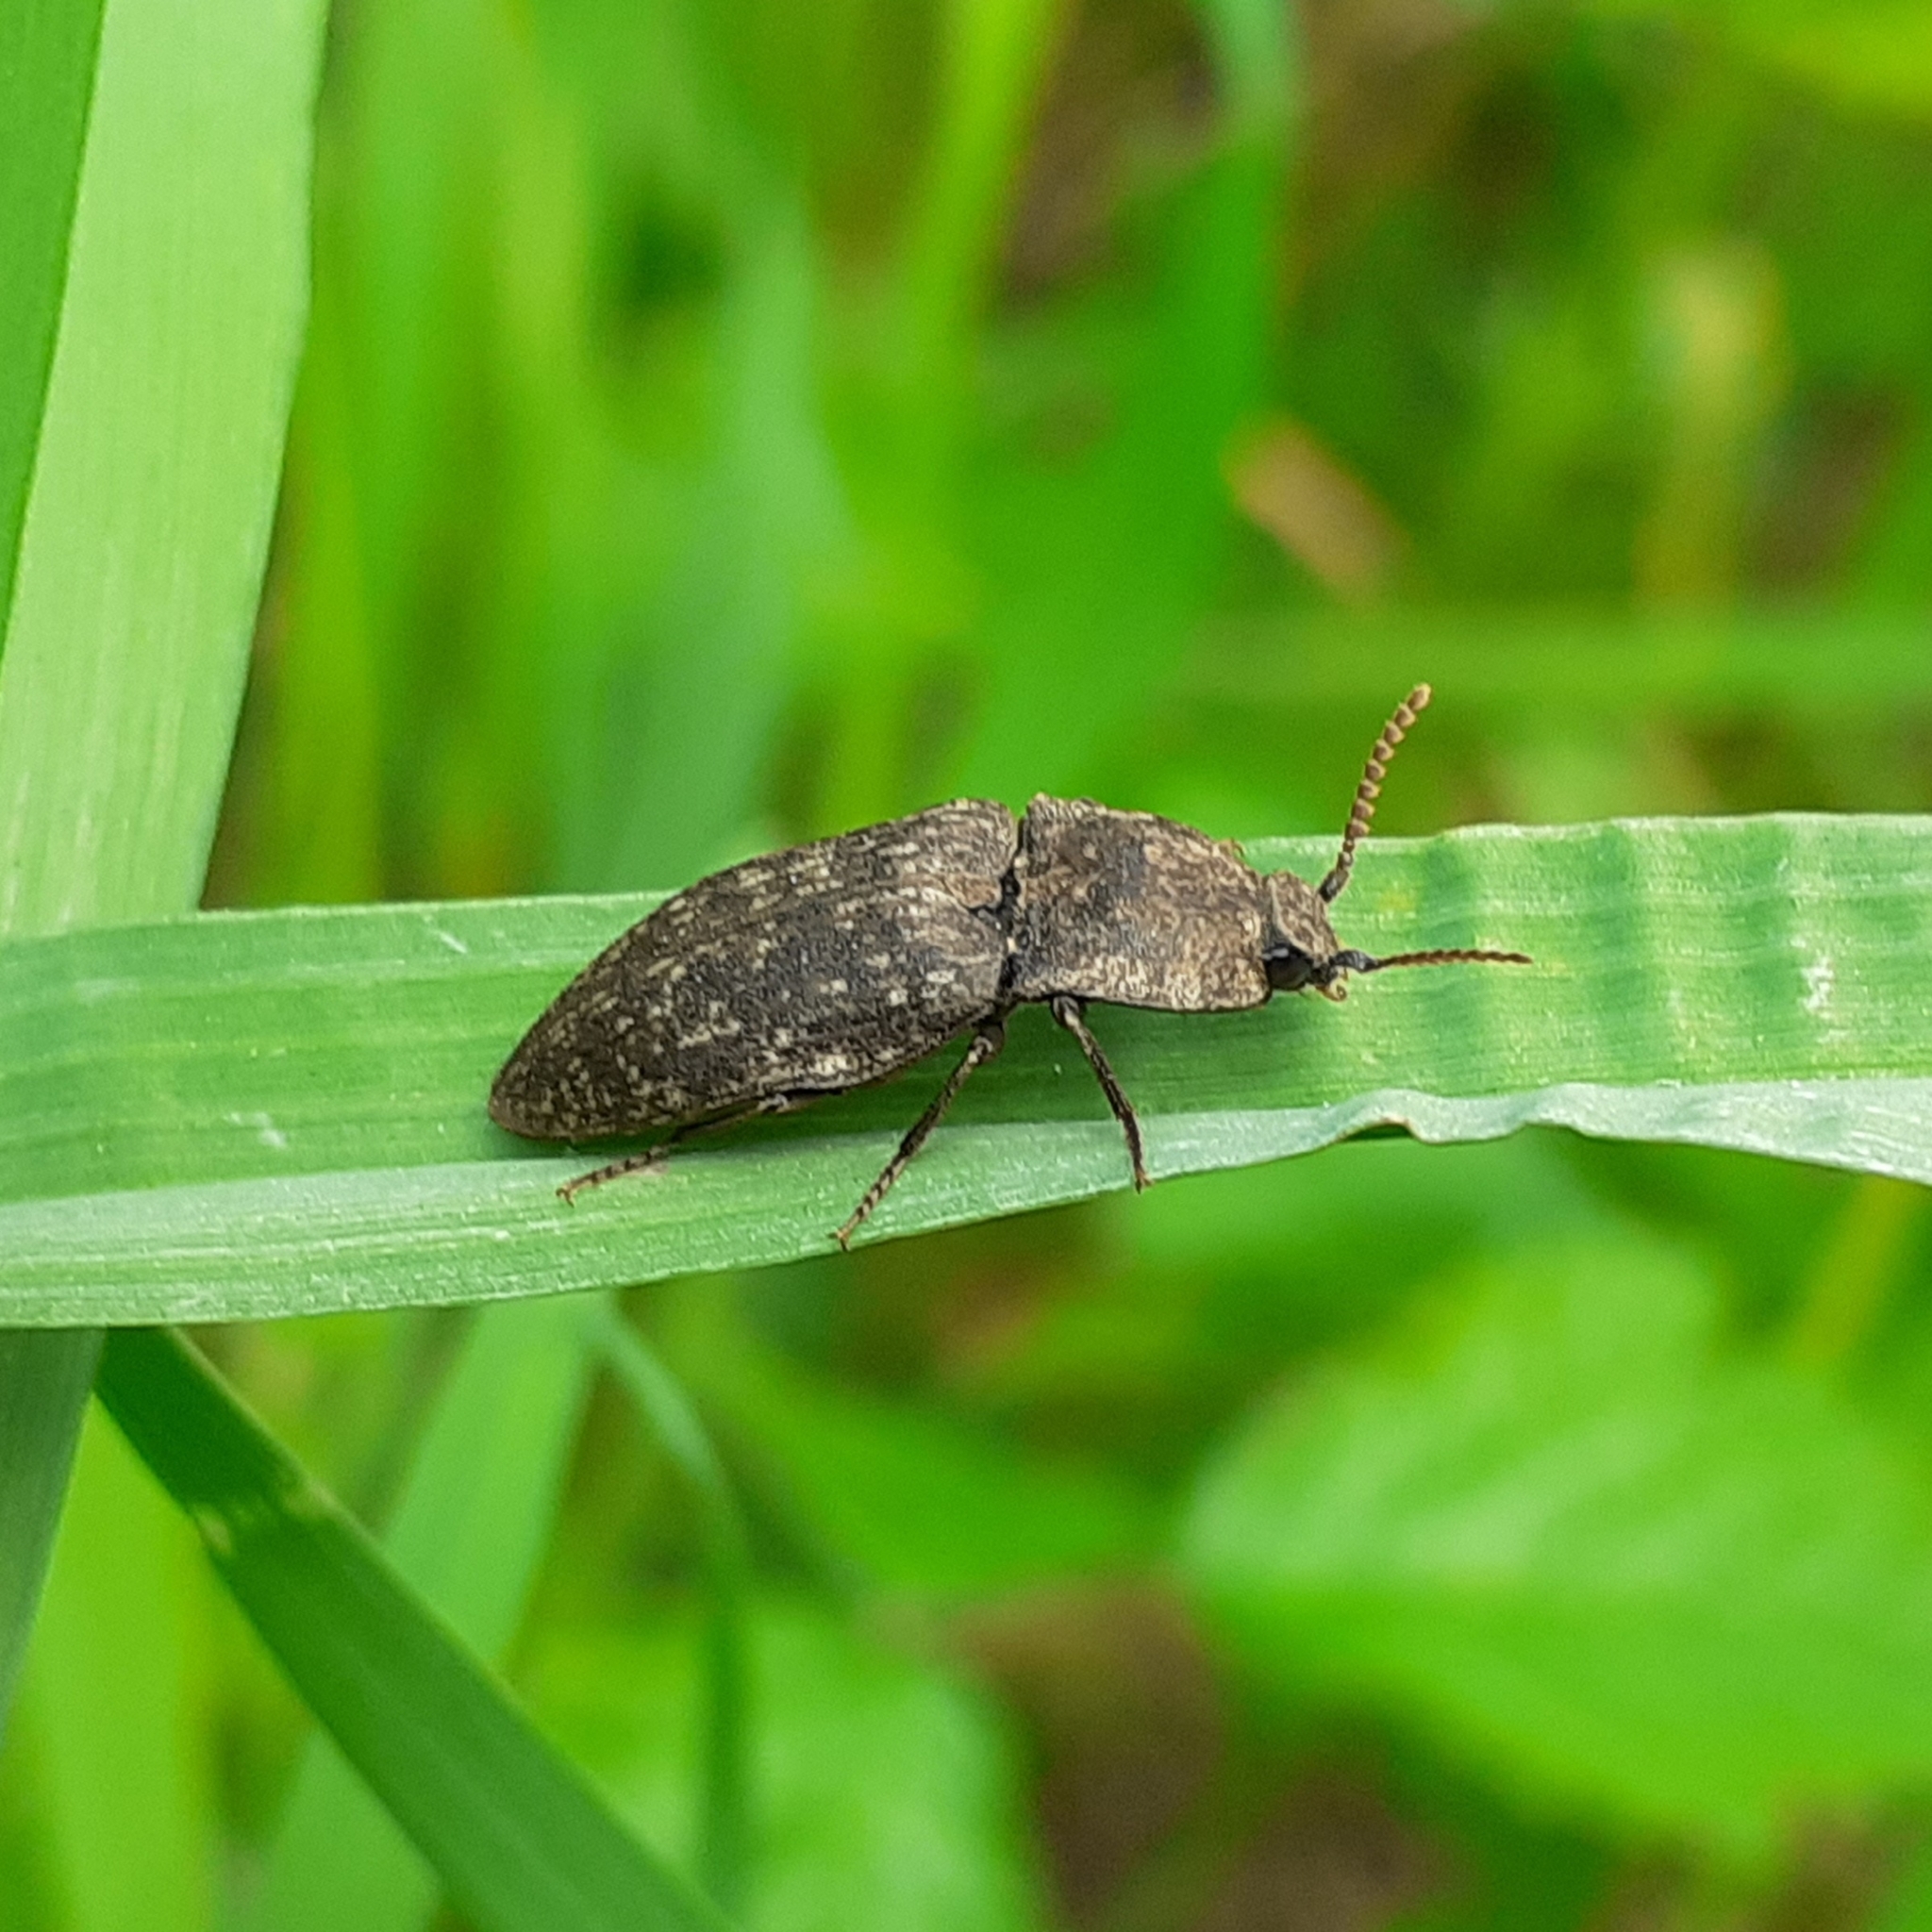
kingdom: Animalia
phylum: Arthropoda
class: Insecta
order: Coleoptera
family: Elateridae
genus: Agrypnus
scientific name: Agrypnus murinus
